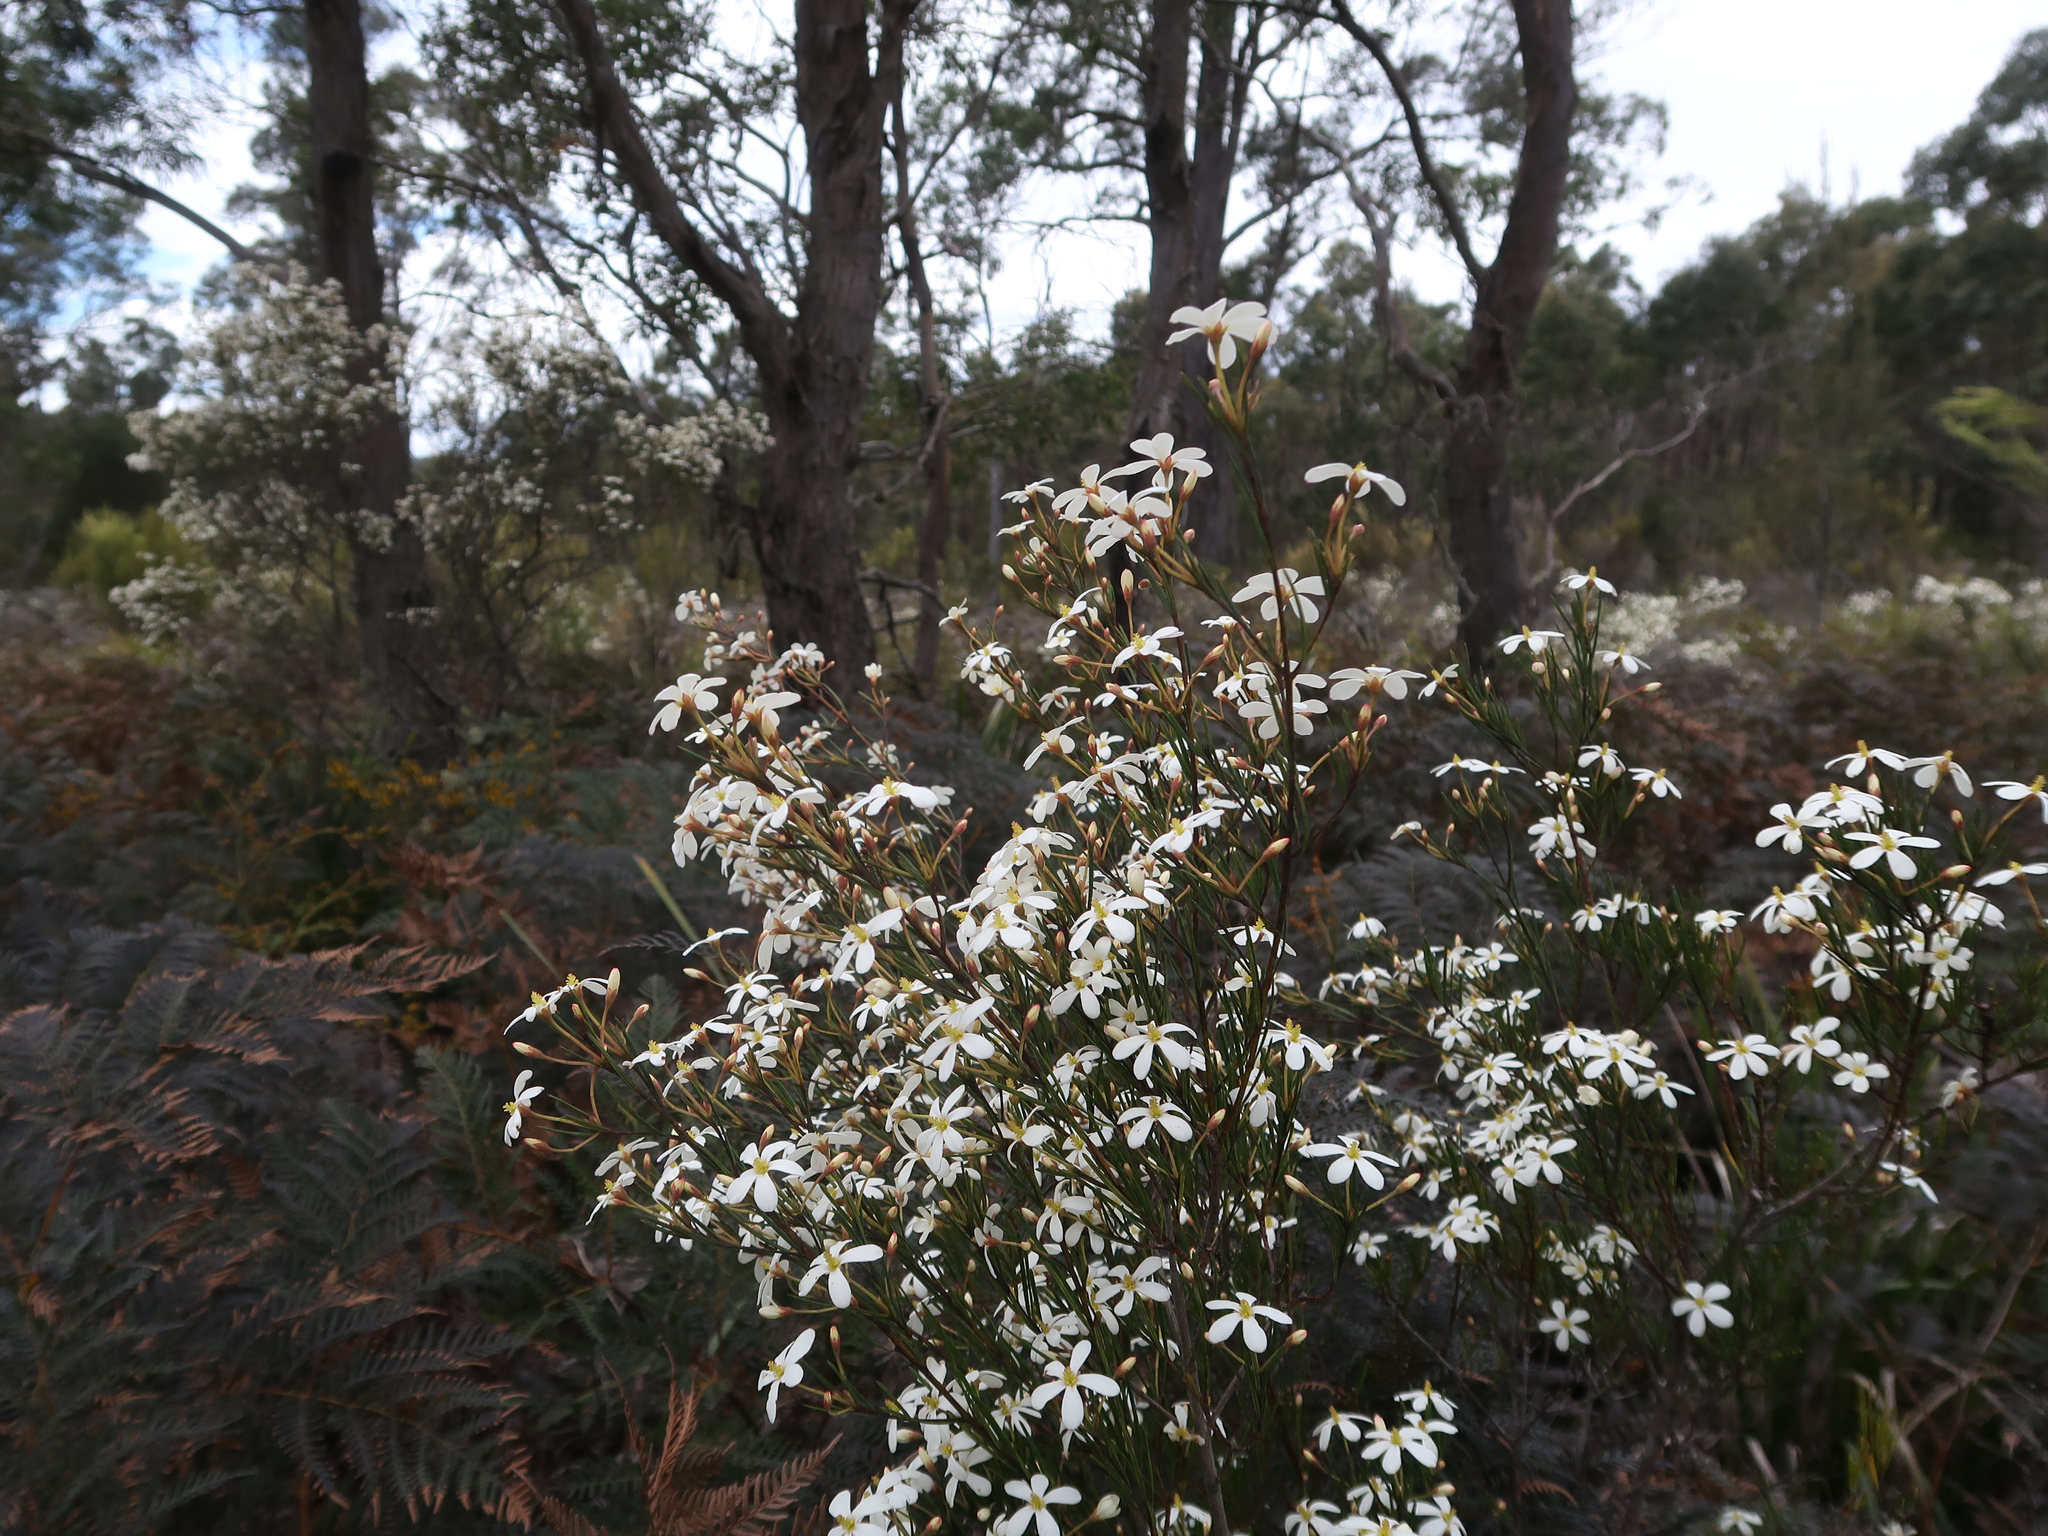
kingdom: Plantae
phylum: Tracheophyta
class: Magnoliopsida
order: Malpighiales
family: Euphorbiaceae
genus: Ricinocarpos
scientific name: Ricinocarpos pinifolius
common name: Weddingbush
